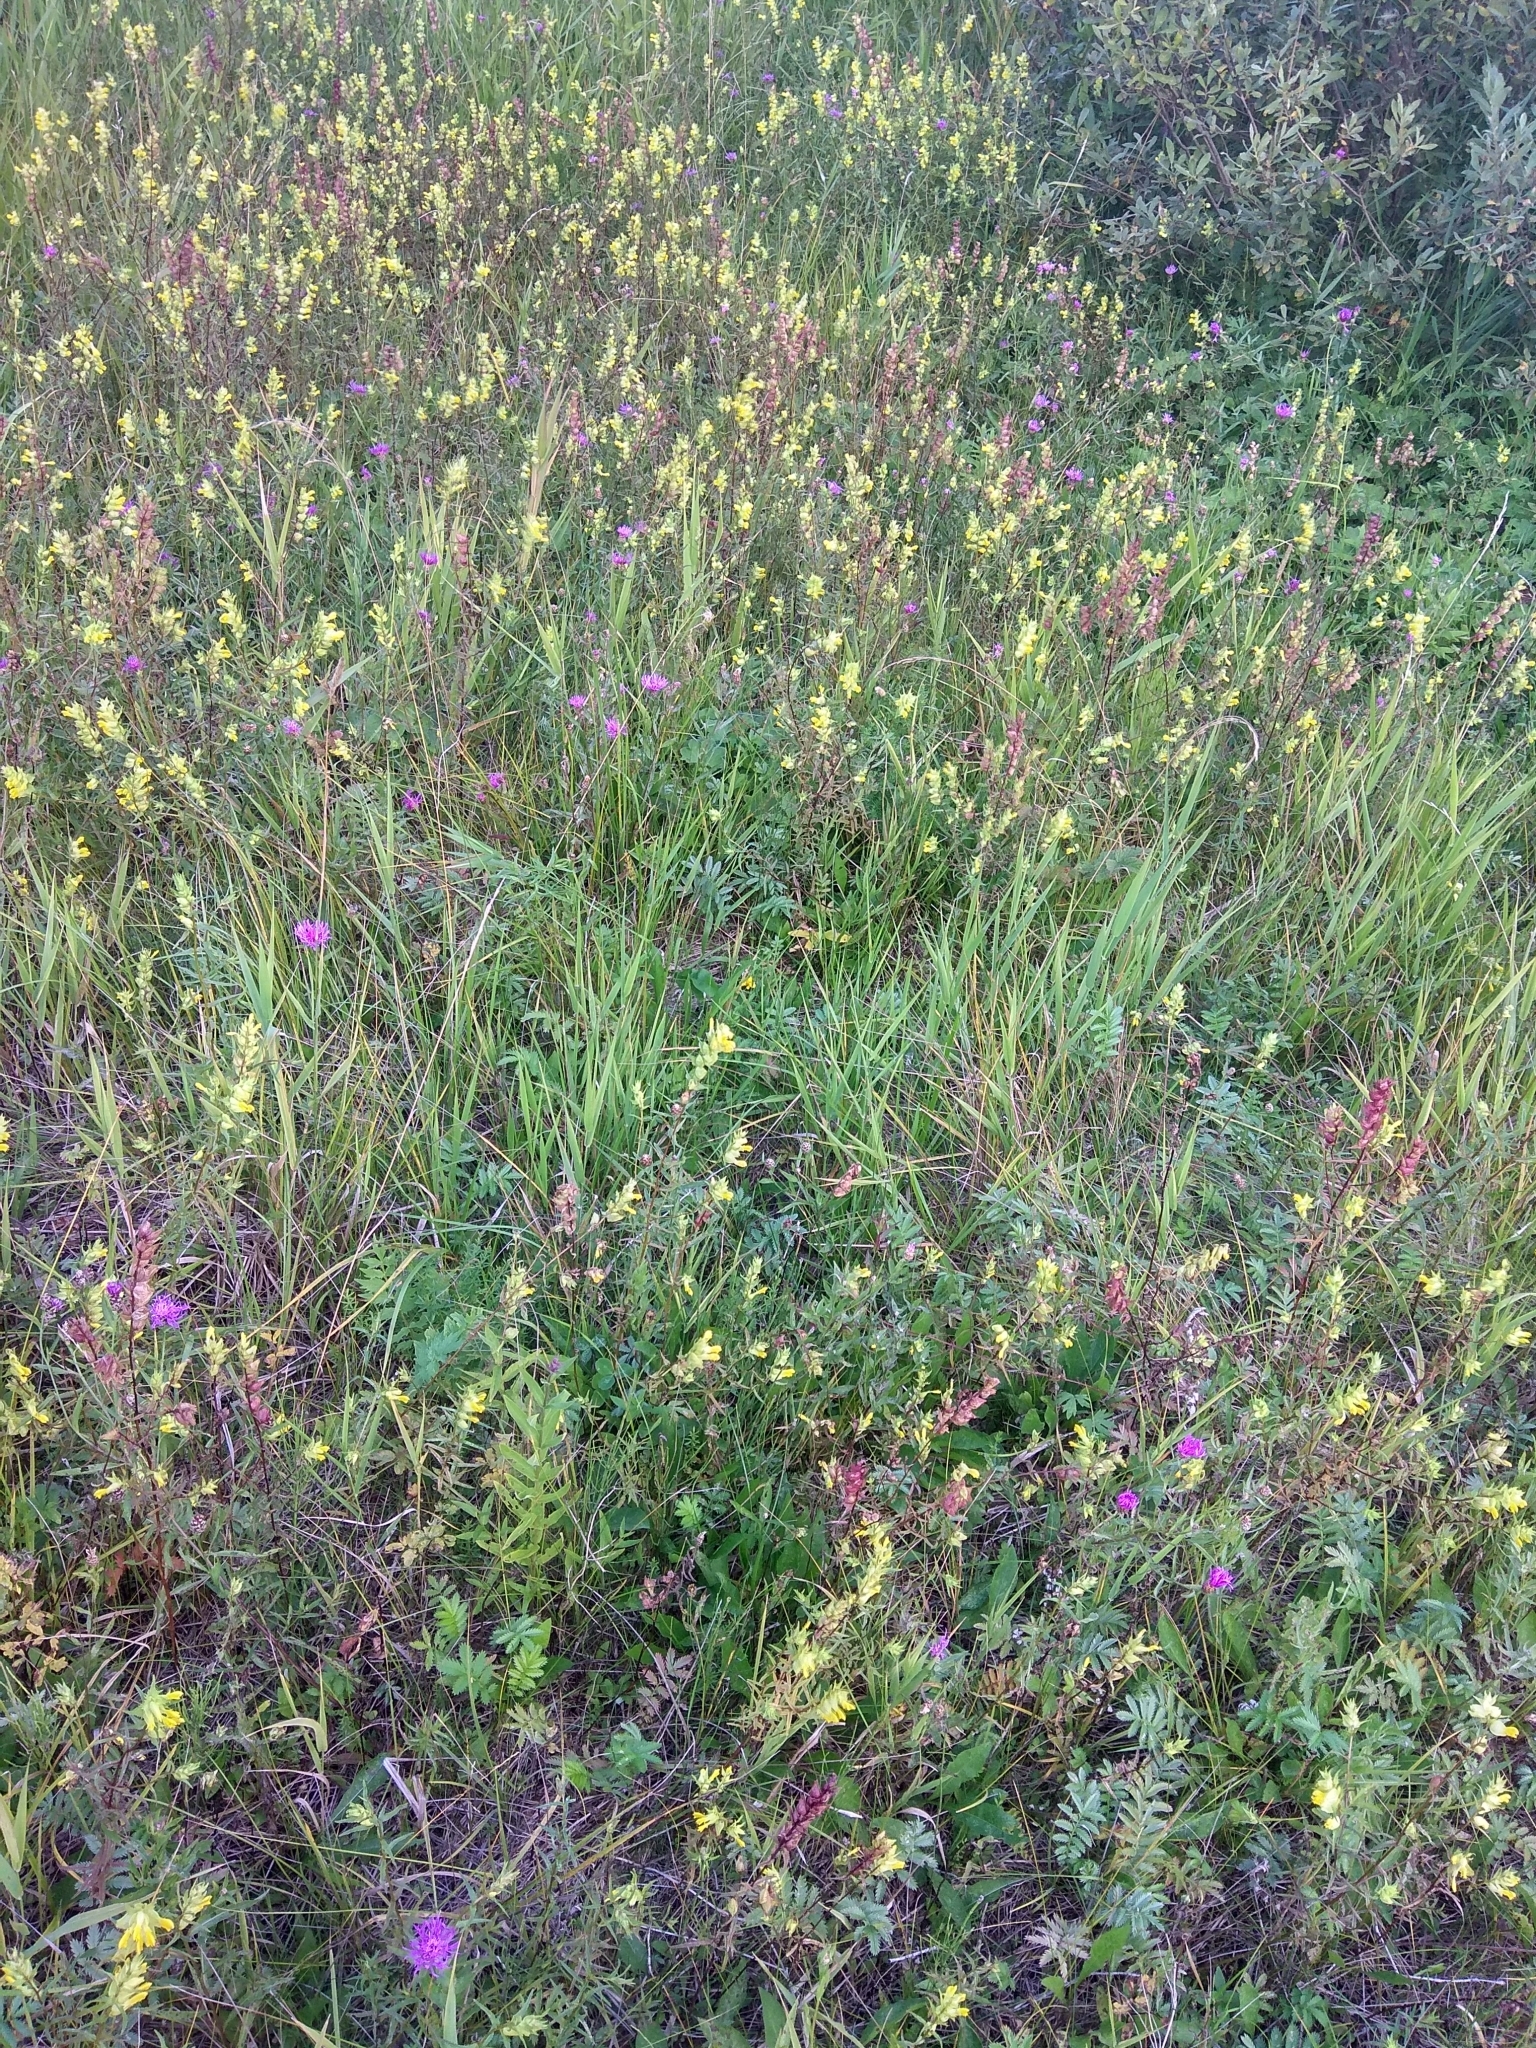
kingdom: Plantae
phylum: Tracheophyta
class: Magnoliopsida
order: Lamiales
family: Orobanchaceae
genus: Rhinanthus
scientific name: Rhinanthus serotinus
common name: Late-flowering yellow rattle
